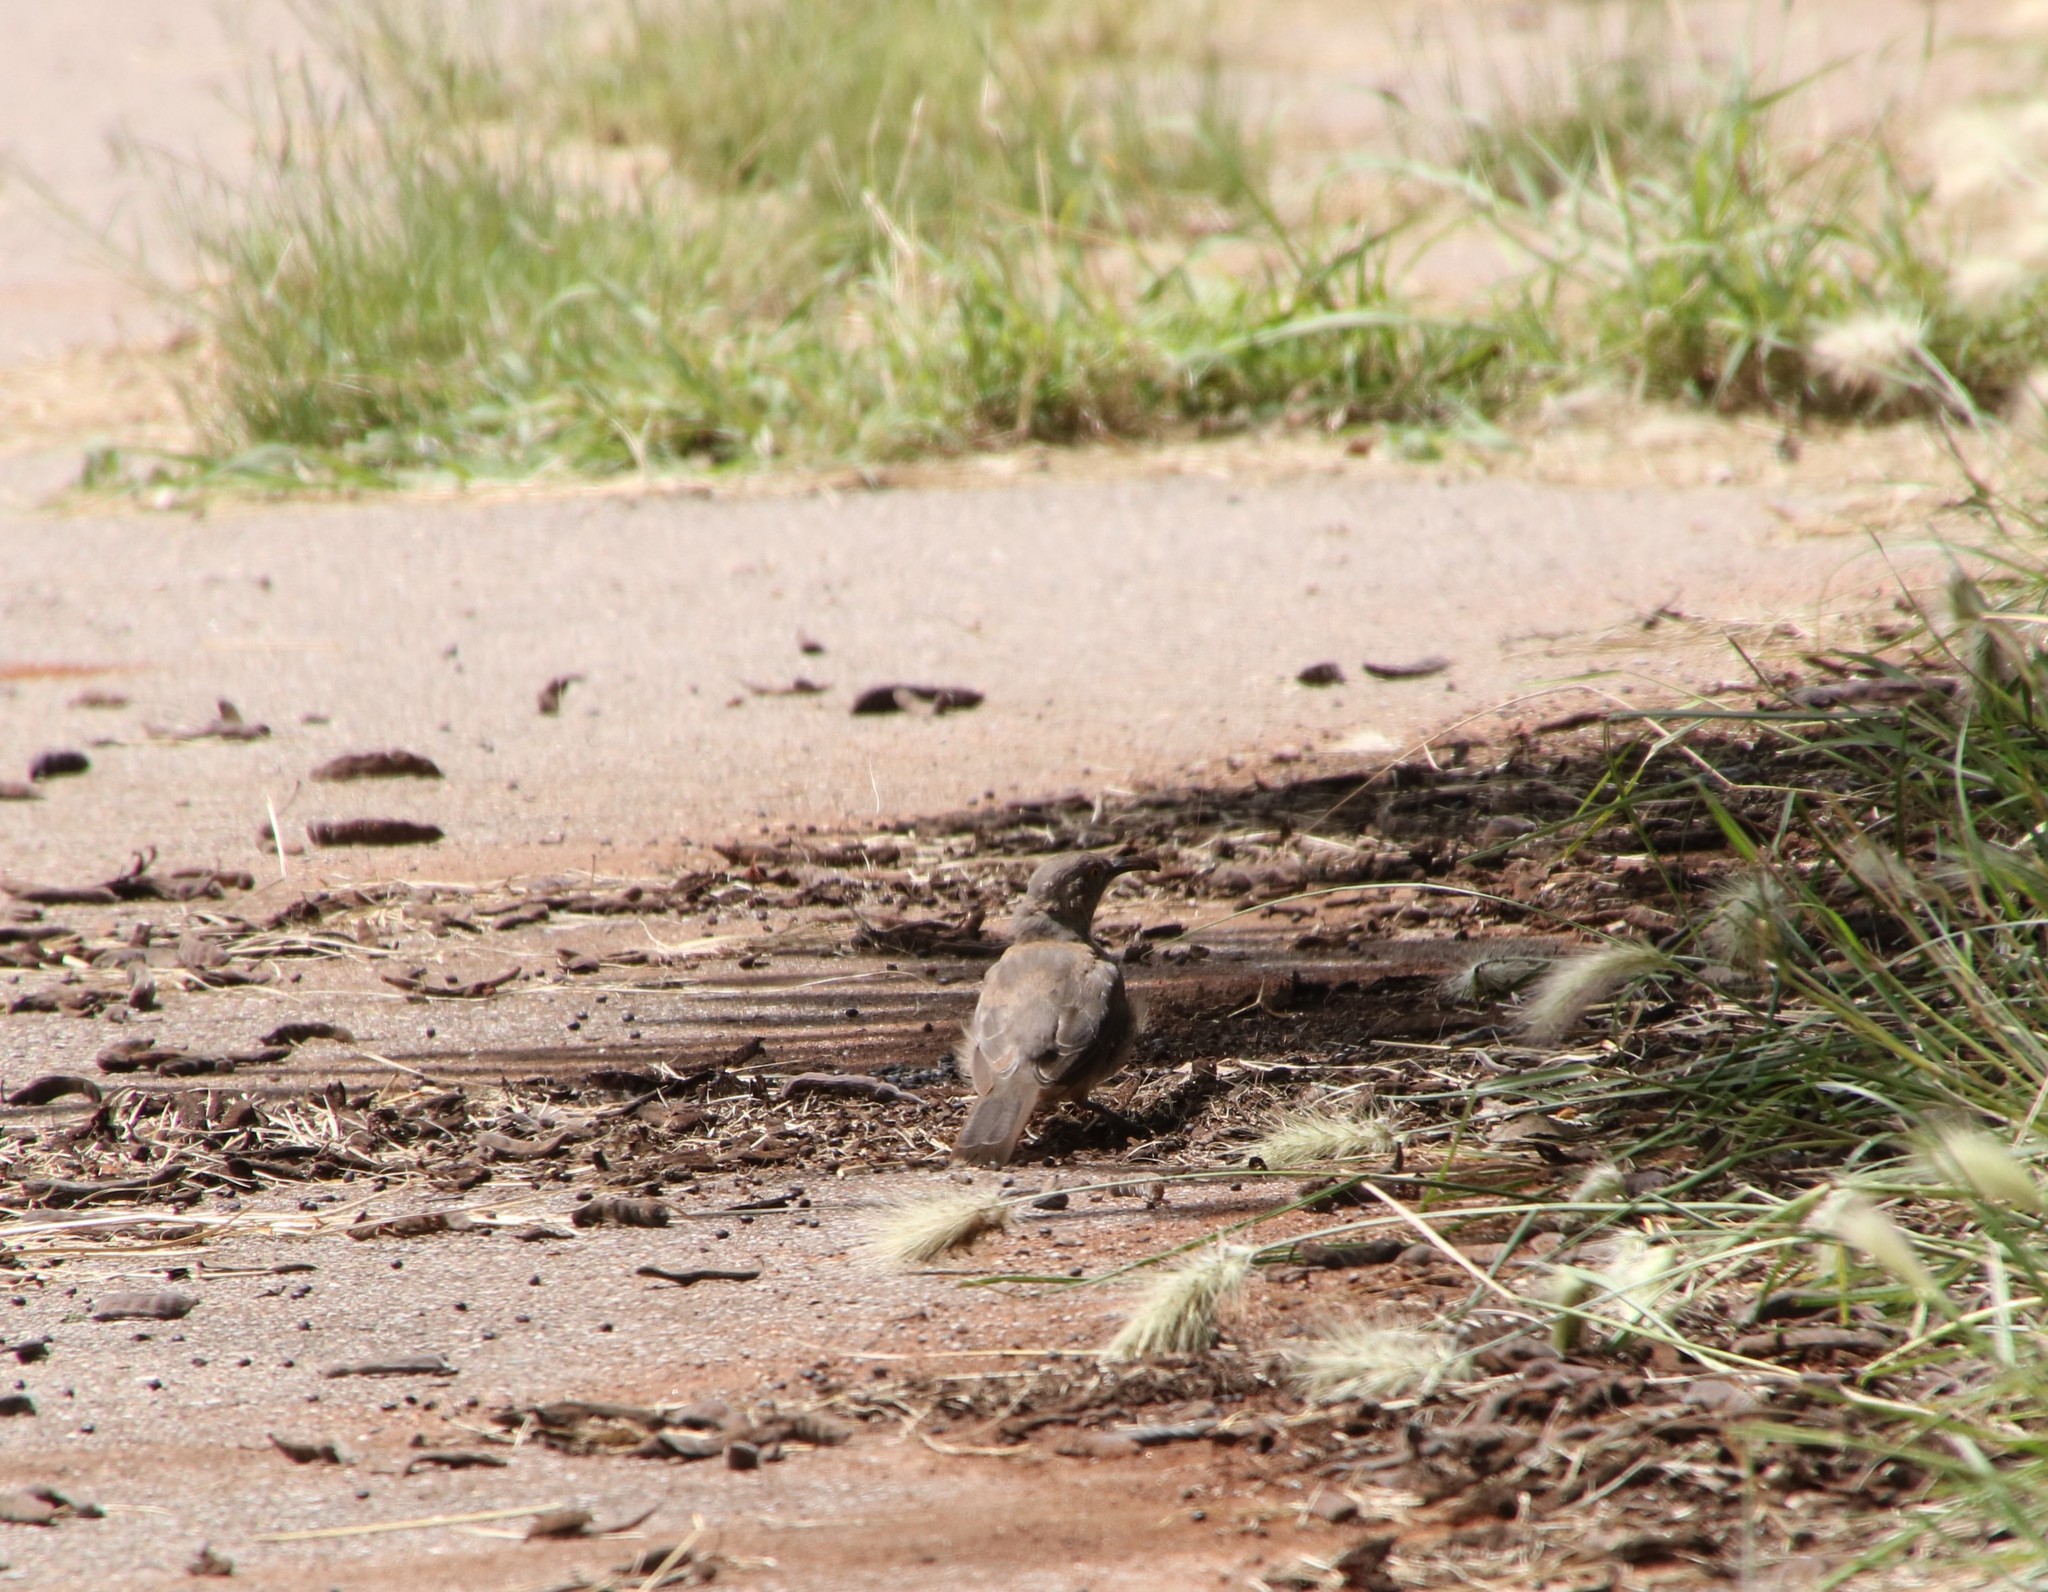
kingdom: Animalia
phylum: Chordata
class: Aves
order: Passeriformes
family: Mimidae
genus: Toxostoma
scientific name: Toxostoma curvirostre
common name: Curve-billed thrasher
